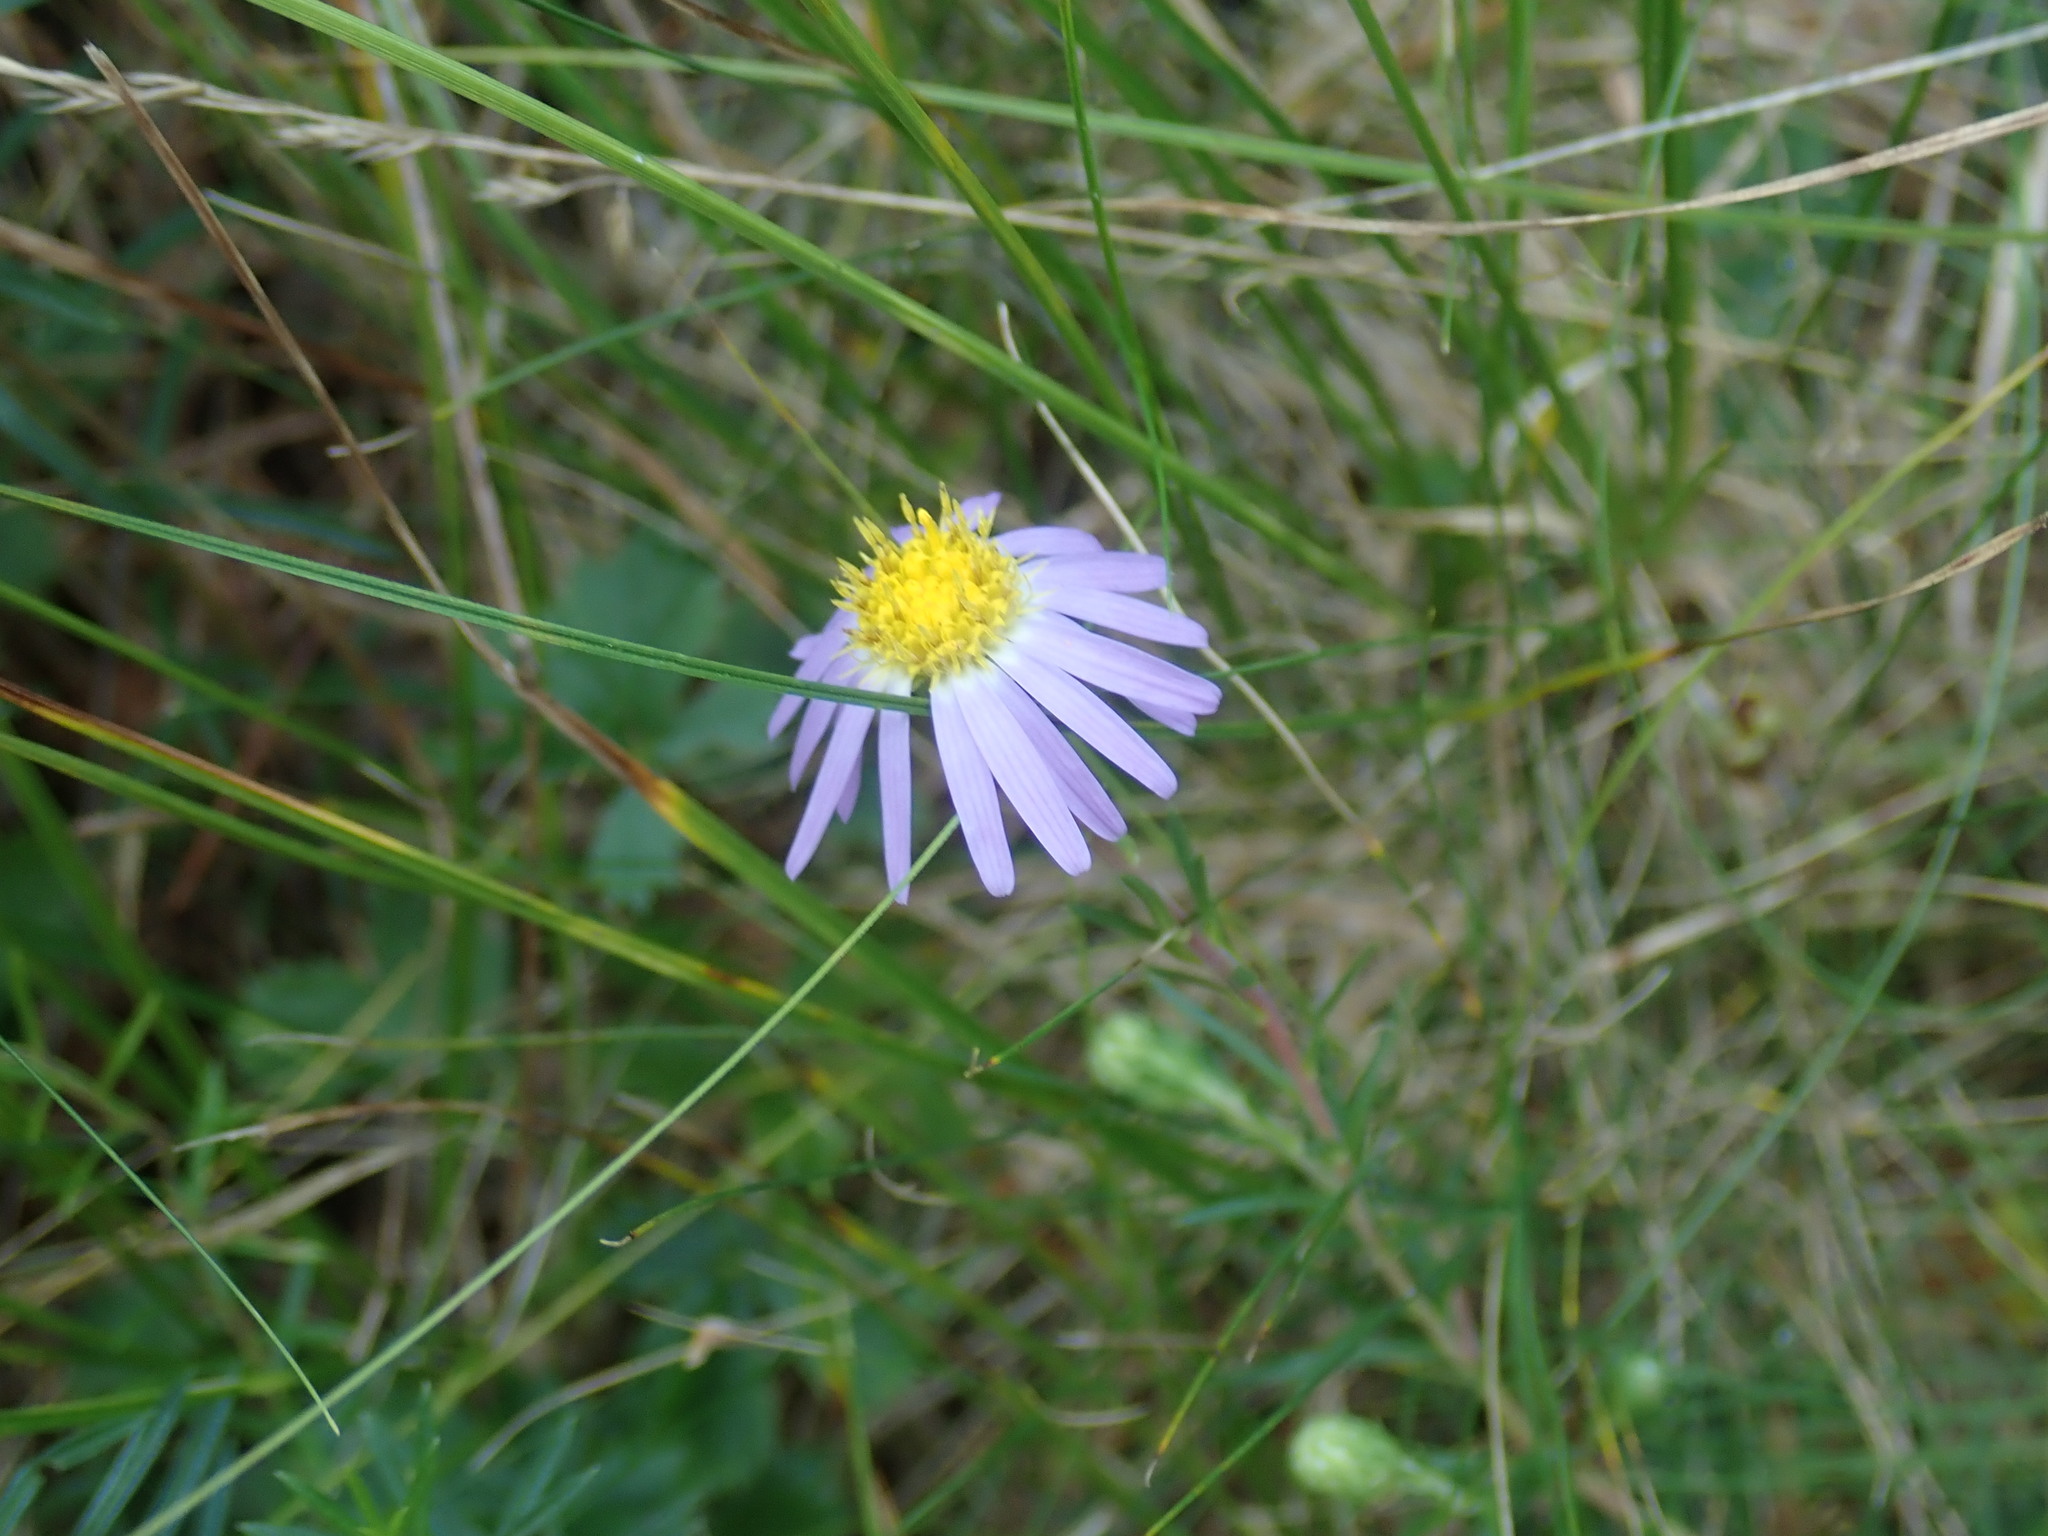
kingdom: Plantae
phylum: Tracheophyta
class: Magnoliopsida
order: Asterales
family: Asteraceae
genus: Ionactis
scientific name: Ionactis linariifolia
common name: Flax-leaf aster
